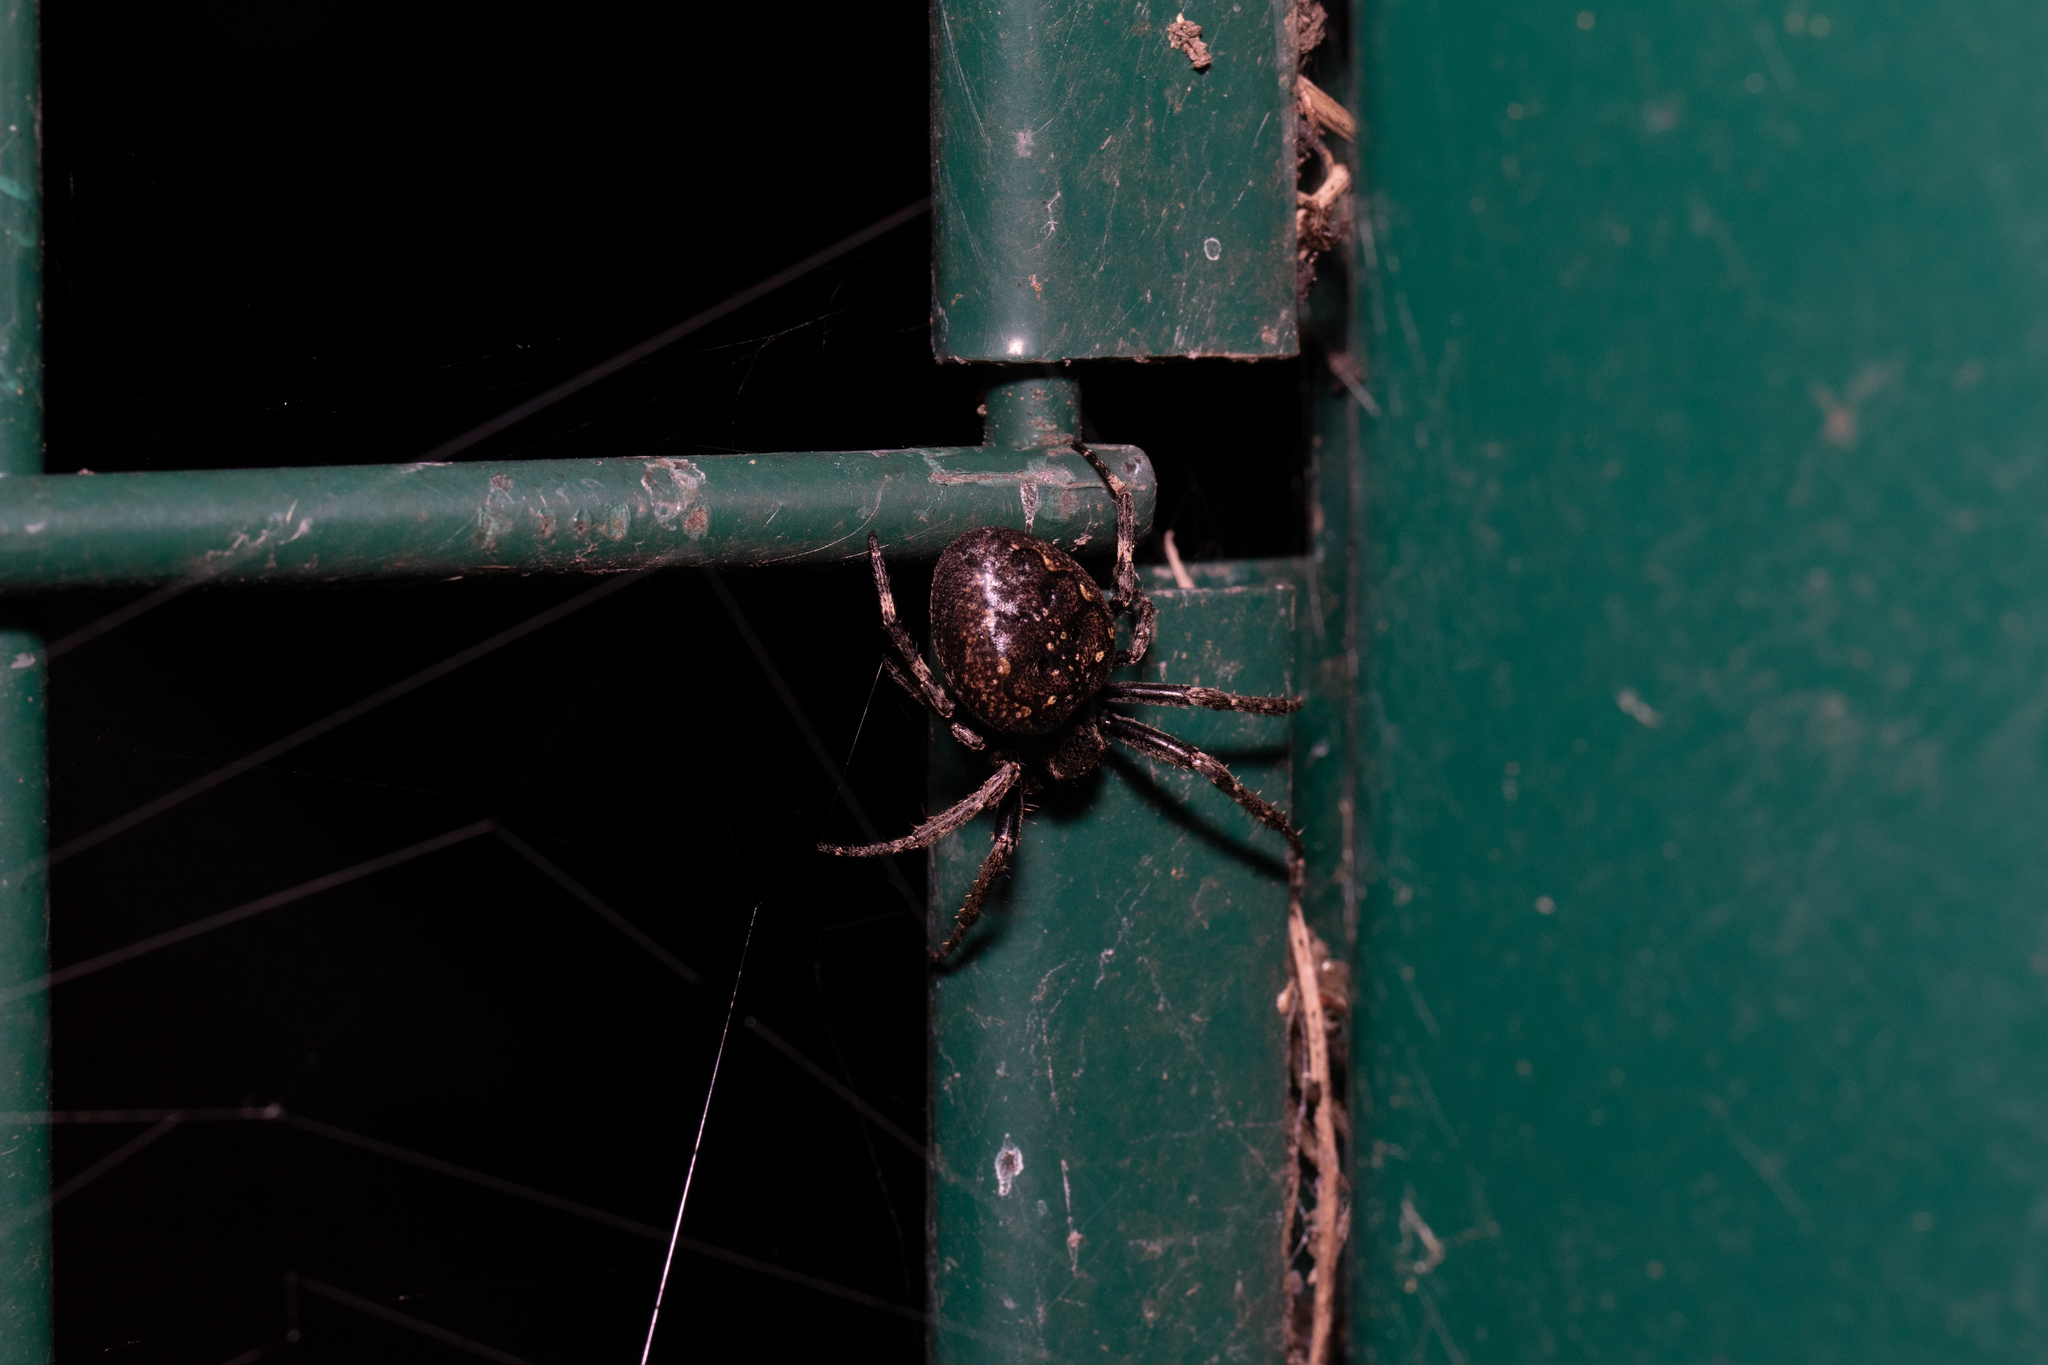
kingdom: Animalia
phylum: Arthropoda
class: Arachnida
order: Araneae
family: Araneidae
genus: Nuctenea
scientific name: Nuctenea umbratica
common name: Toad spider
